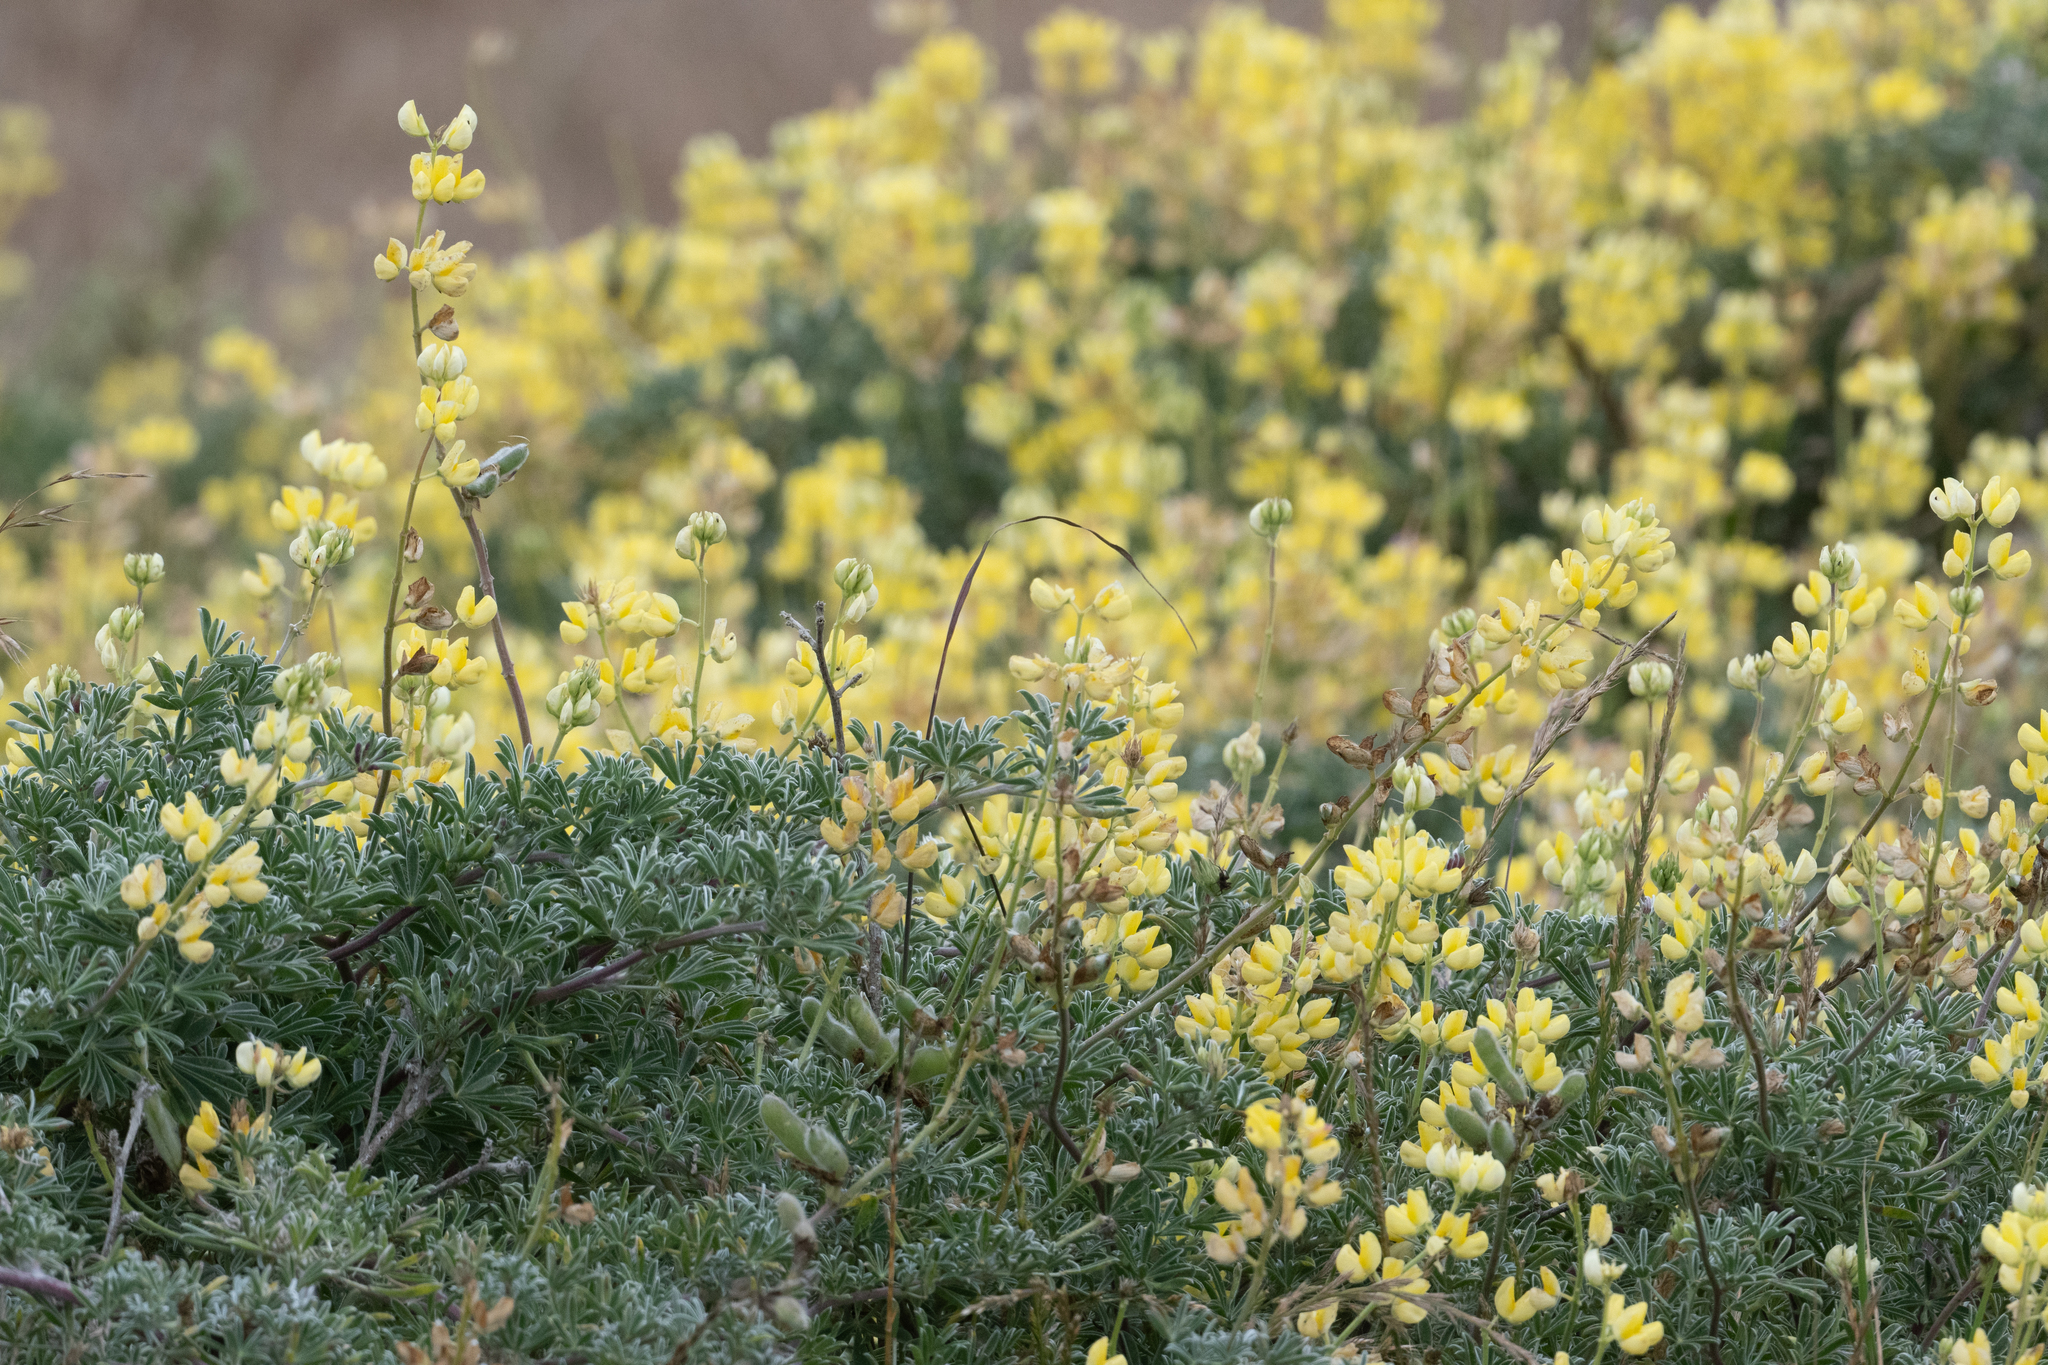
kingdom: Plantae
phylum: Tracheophyta
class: Magnoliopsida
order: Fabales
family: Fabaceae
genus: Lupinus
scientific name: Lupinus arboreus
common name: Yellow bush lupine
